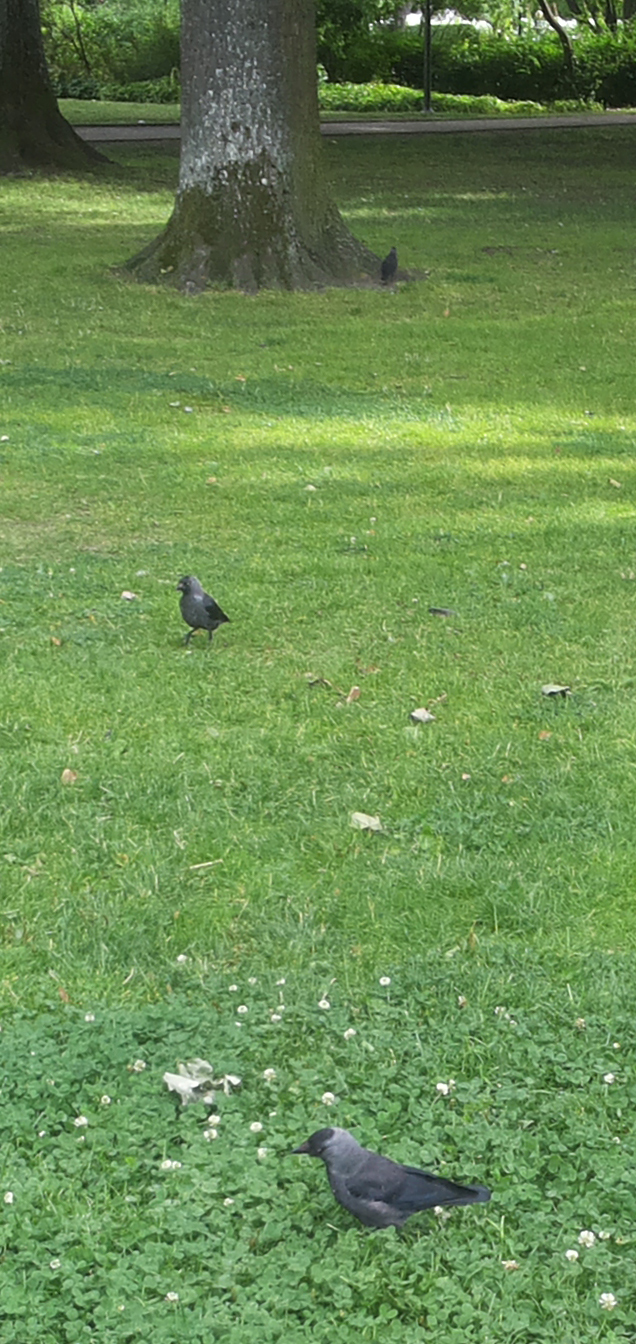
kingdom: Animalia
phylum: Chordata
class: Aves
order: Passeriformes
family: Corvidae
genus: Coloeus
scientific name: Coloeus monedula
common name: Western jackdaw
